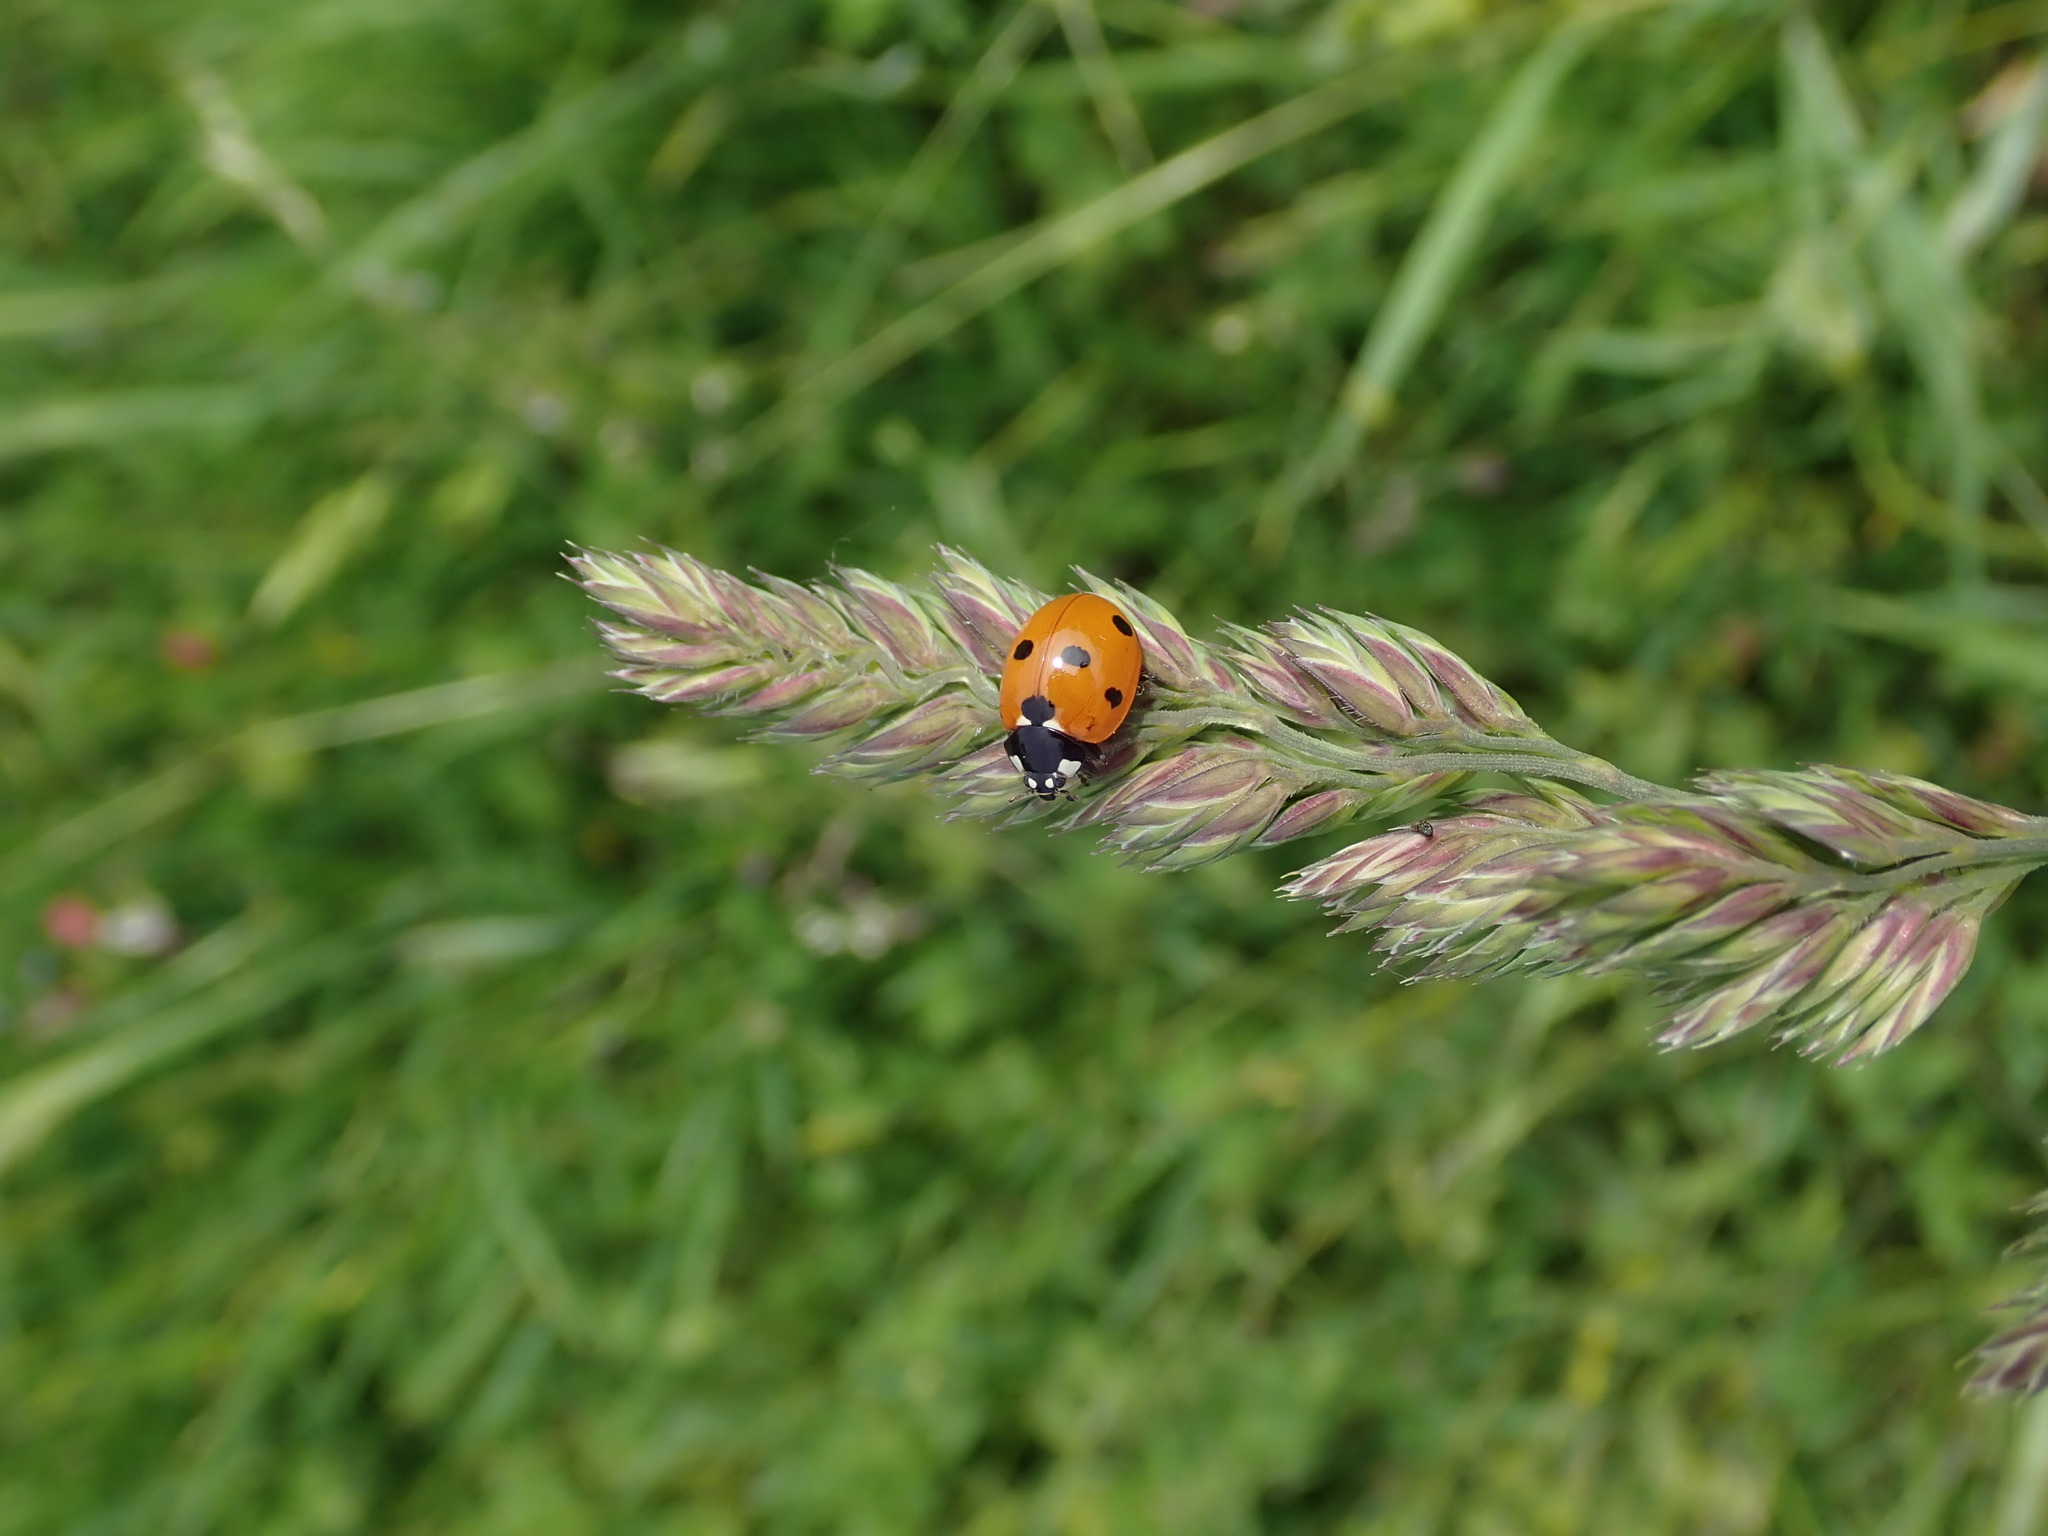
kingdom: Animalia
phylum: Arthropoda
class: Insecta
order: Coleoptera
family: Coccinellidae
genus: Coccinella
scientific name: Coccinella septempunctata
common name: Sevenspotted lady beetle
